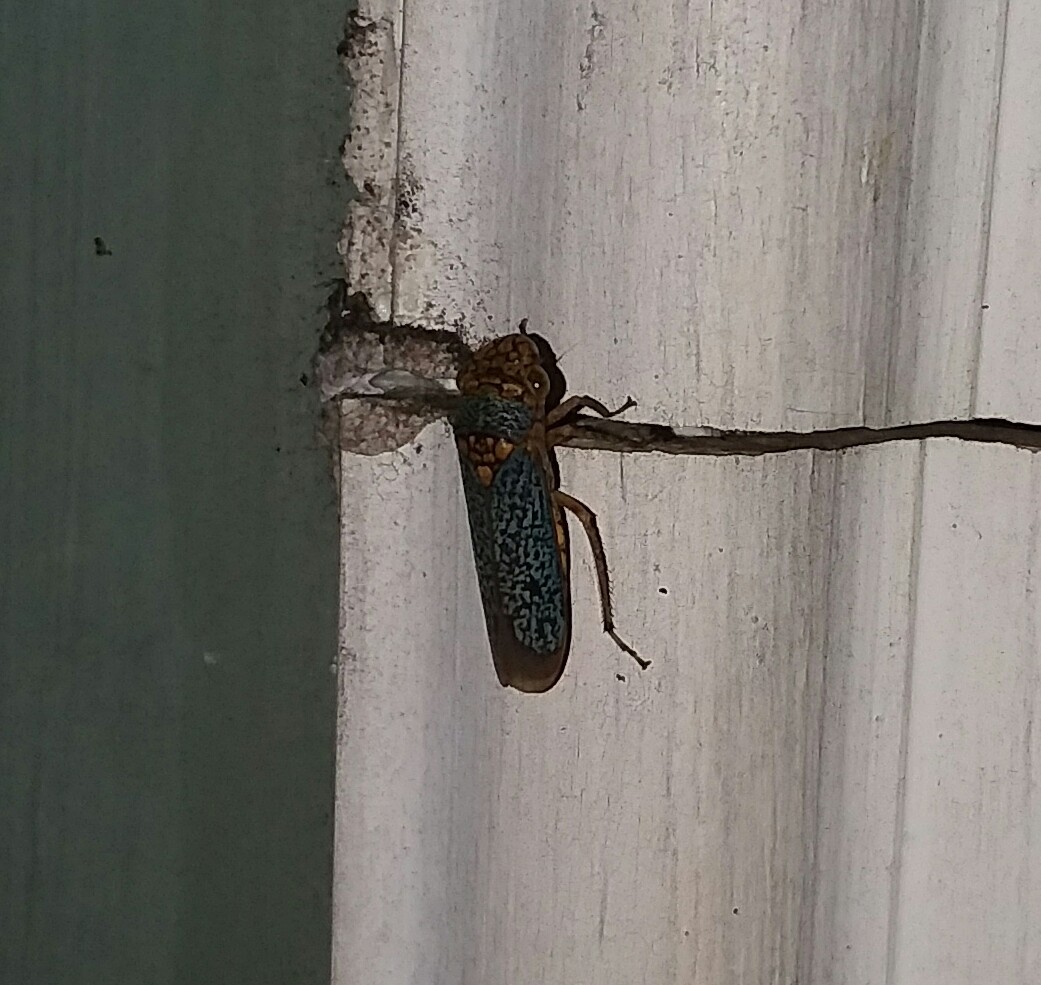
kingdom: Animalia
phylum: Arthropoda
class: Insecta
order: Hemiptera
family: Cicadellidae
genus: Oncometopia
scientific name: Oncometopia orbona
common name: Broad-headed sharpshooter
